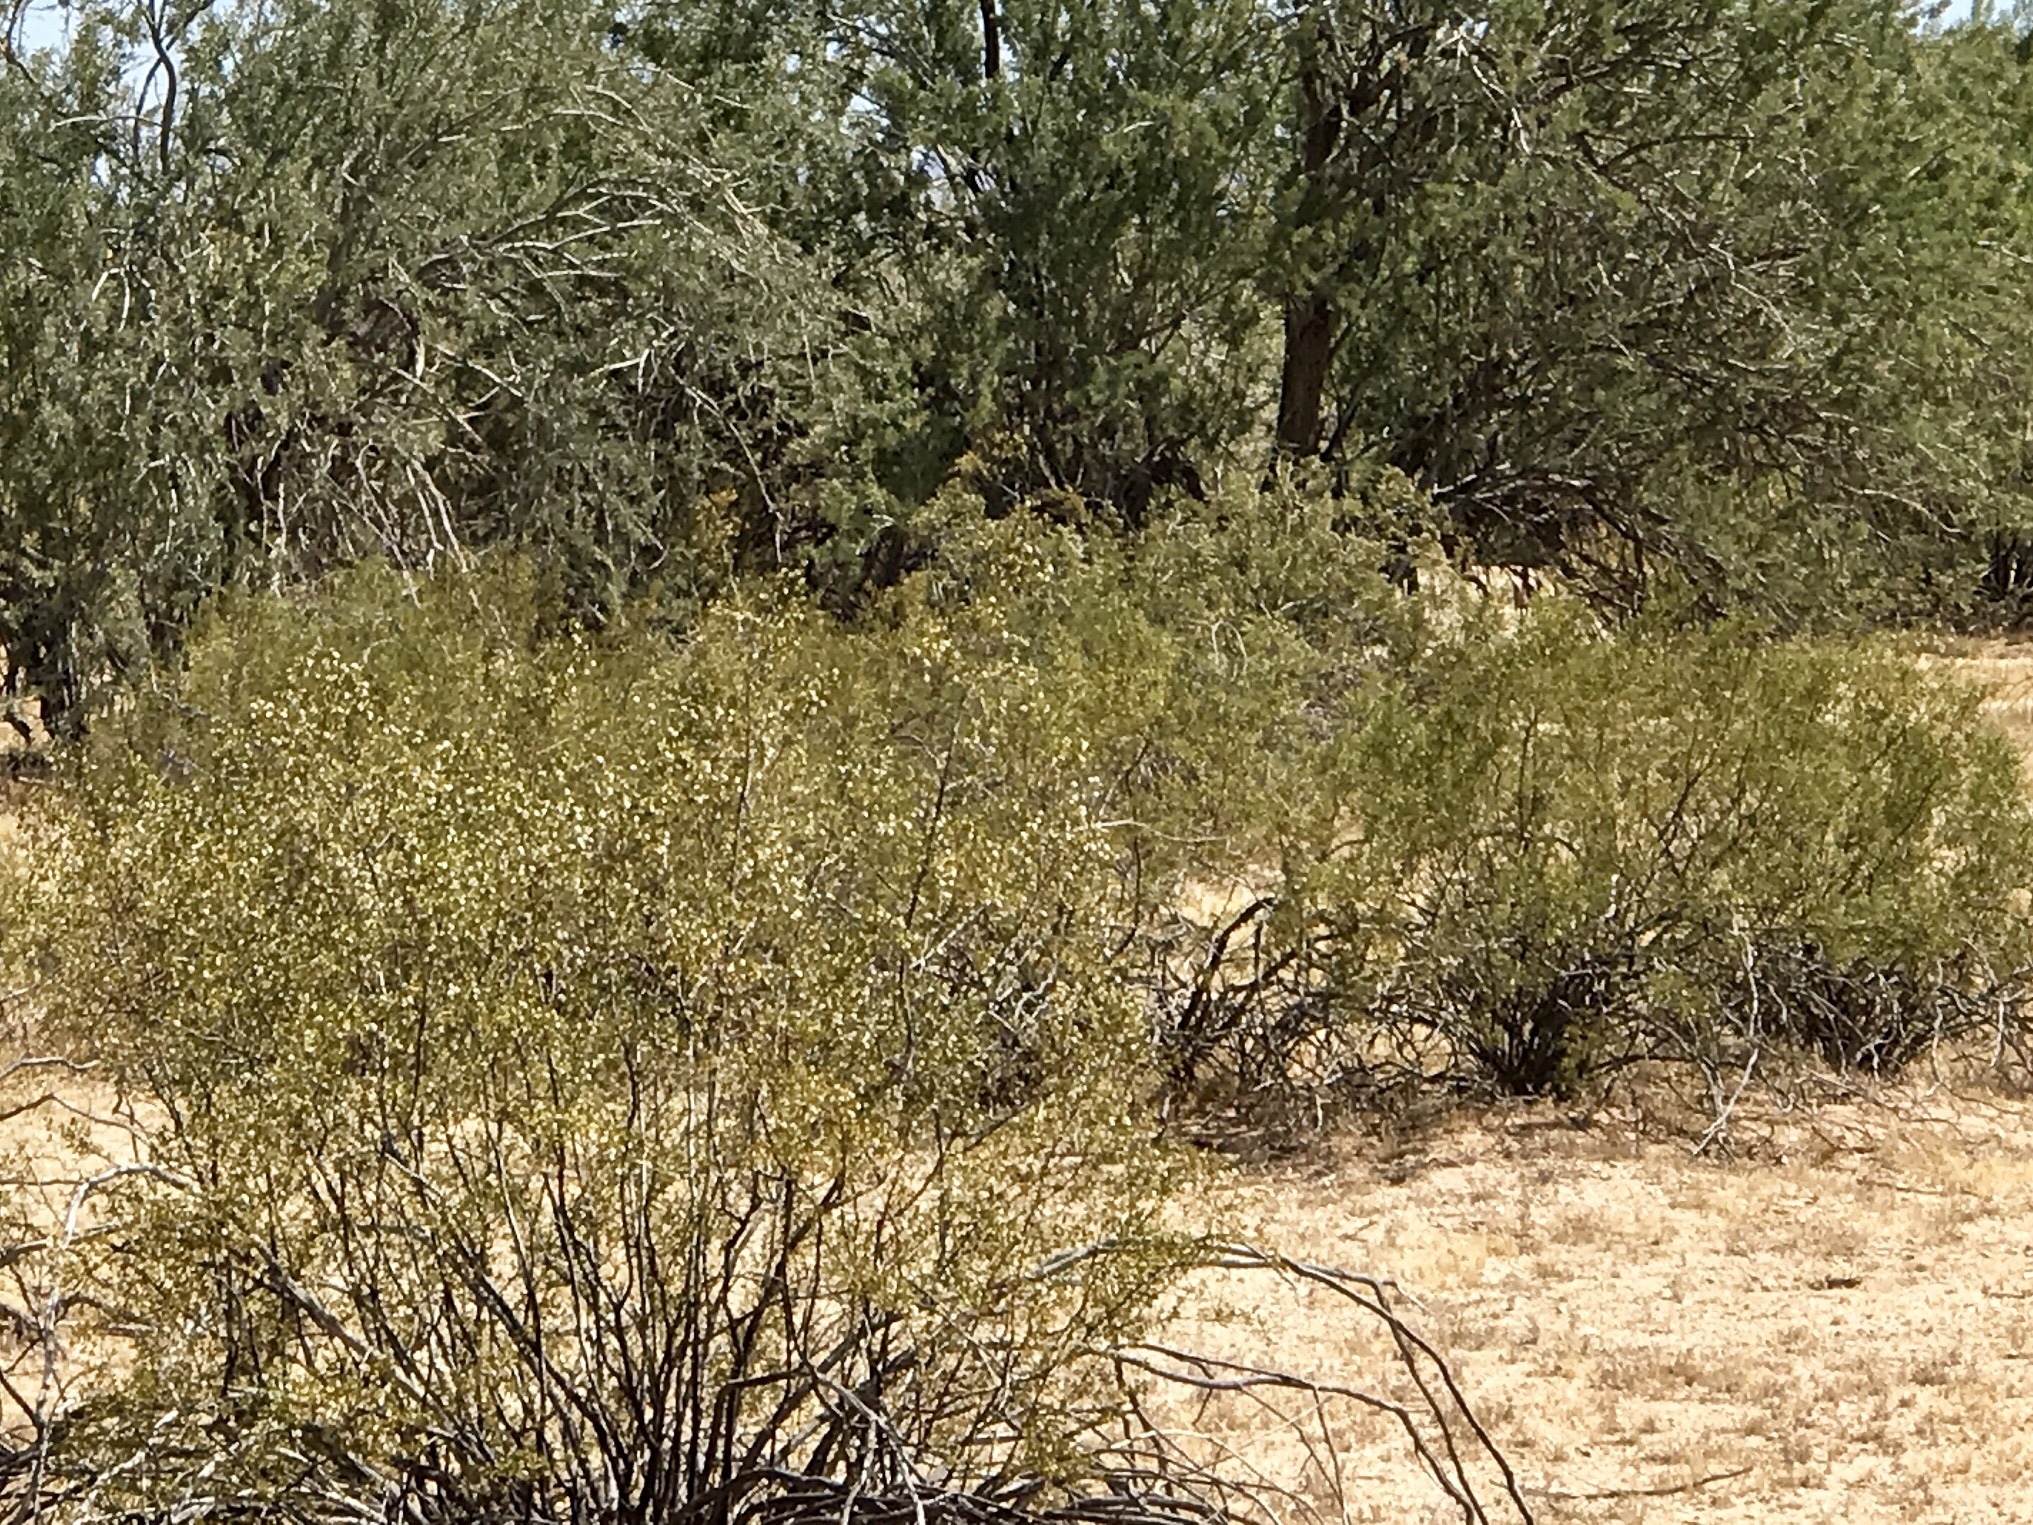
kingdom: Plantae
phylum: Tracheophyta
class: Magnoliopsida
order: Zygophyllales
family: Zygophyllaceae
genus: Larrea
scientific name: Larrea tridentata
